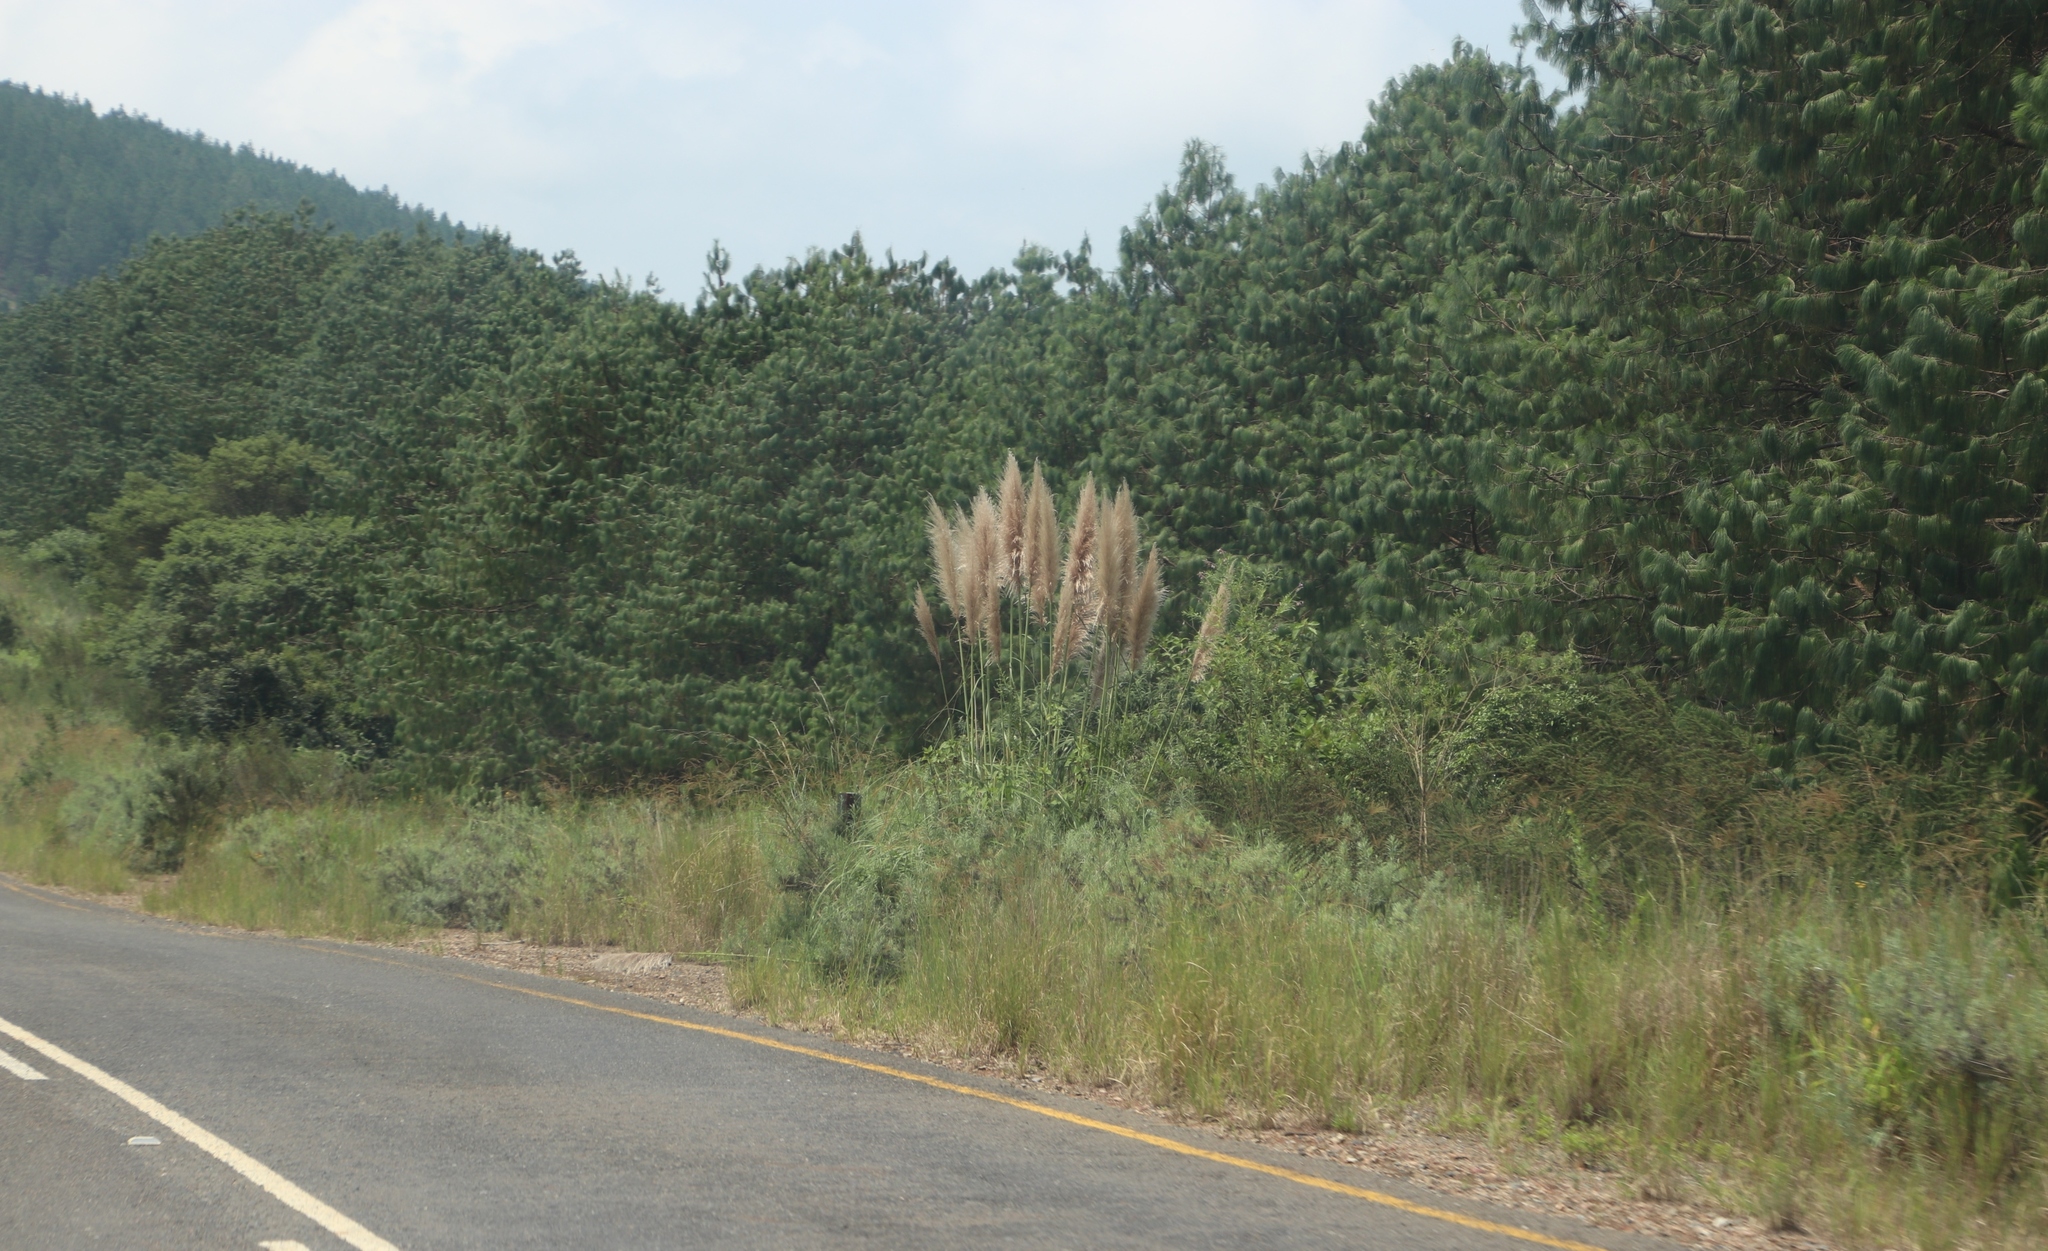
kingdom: Plantae
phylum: Tracheophyta
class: Liliopsida
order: Poales
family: Poaceae
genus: Cortaderia
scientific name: Cortaderia selloana
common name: Uruguayan pampas grass
